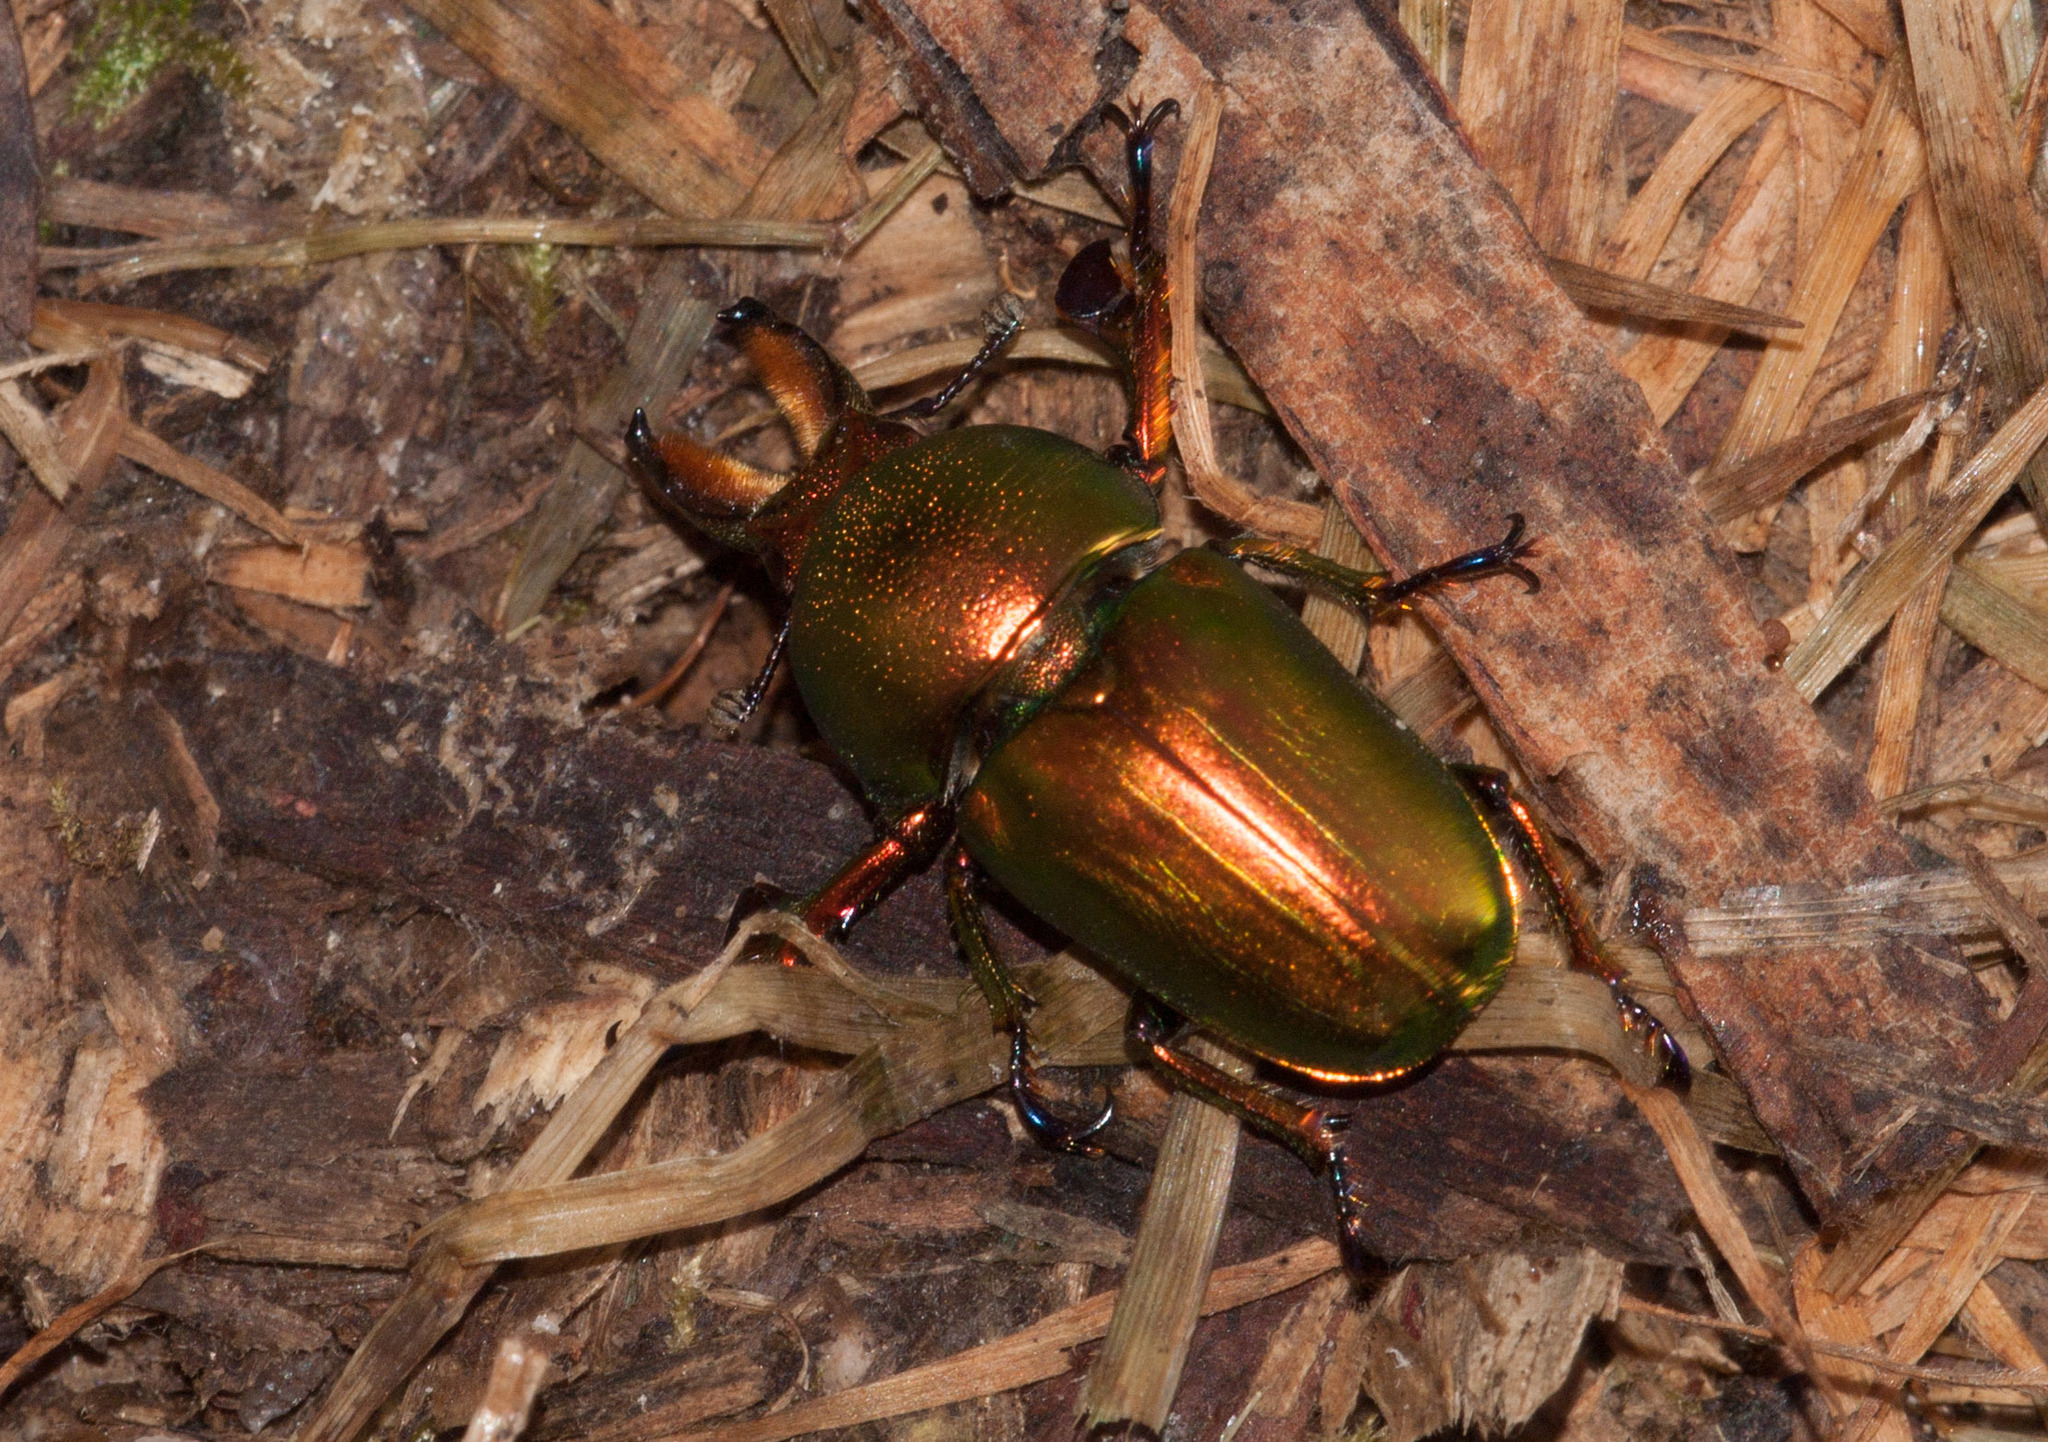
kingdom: Animalia
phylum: Arthropoda
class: Insecta
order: Coleoptera
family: Lucanidae
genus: Lamprima
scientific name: Lamprima aurata
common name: Golden stag beetle
